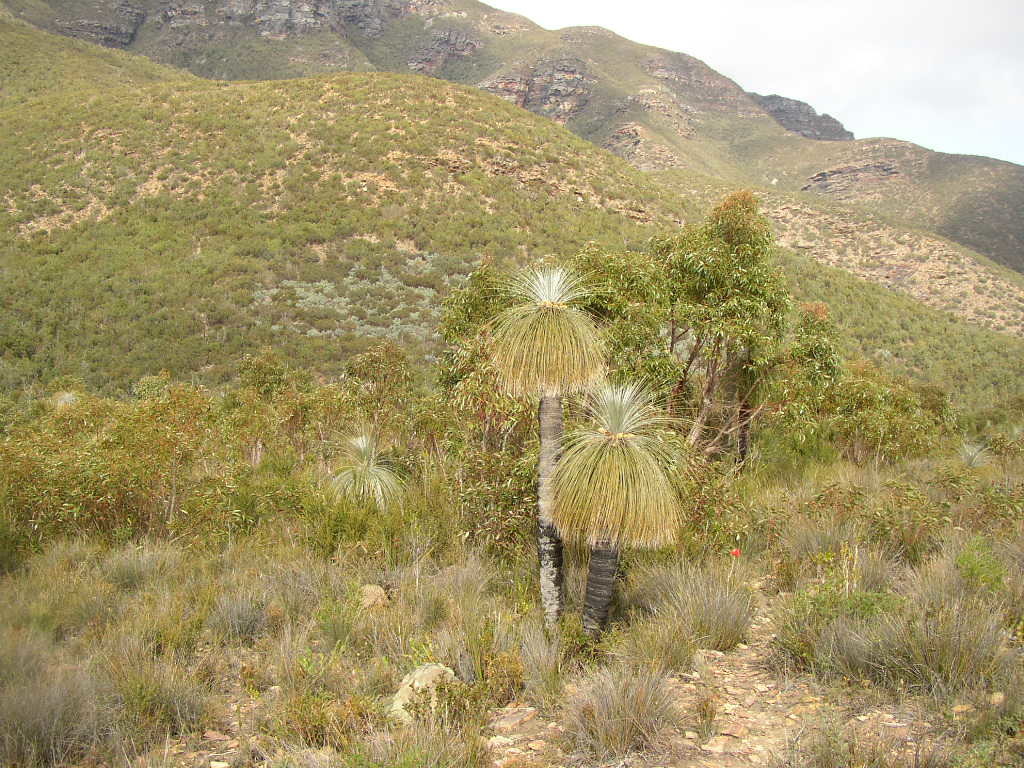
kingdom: Plantae
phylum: Tracheophyta
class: Liliopsida
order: Arecales
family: Dasypogonaceae
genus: Kingia
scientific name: Kingia australis
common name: Black gin
